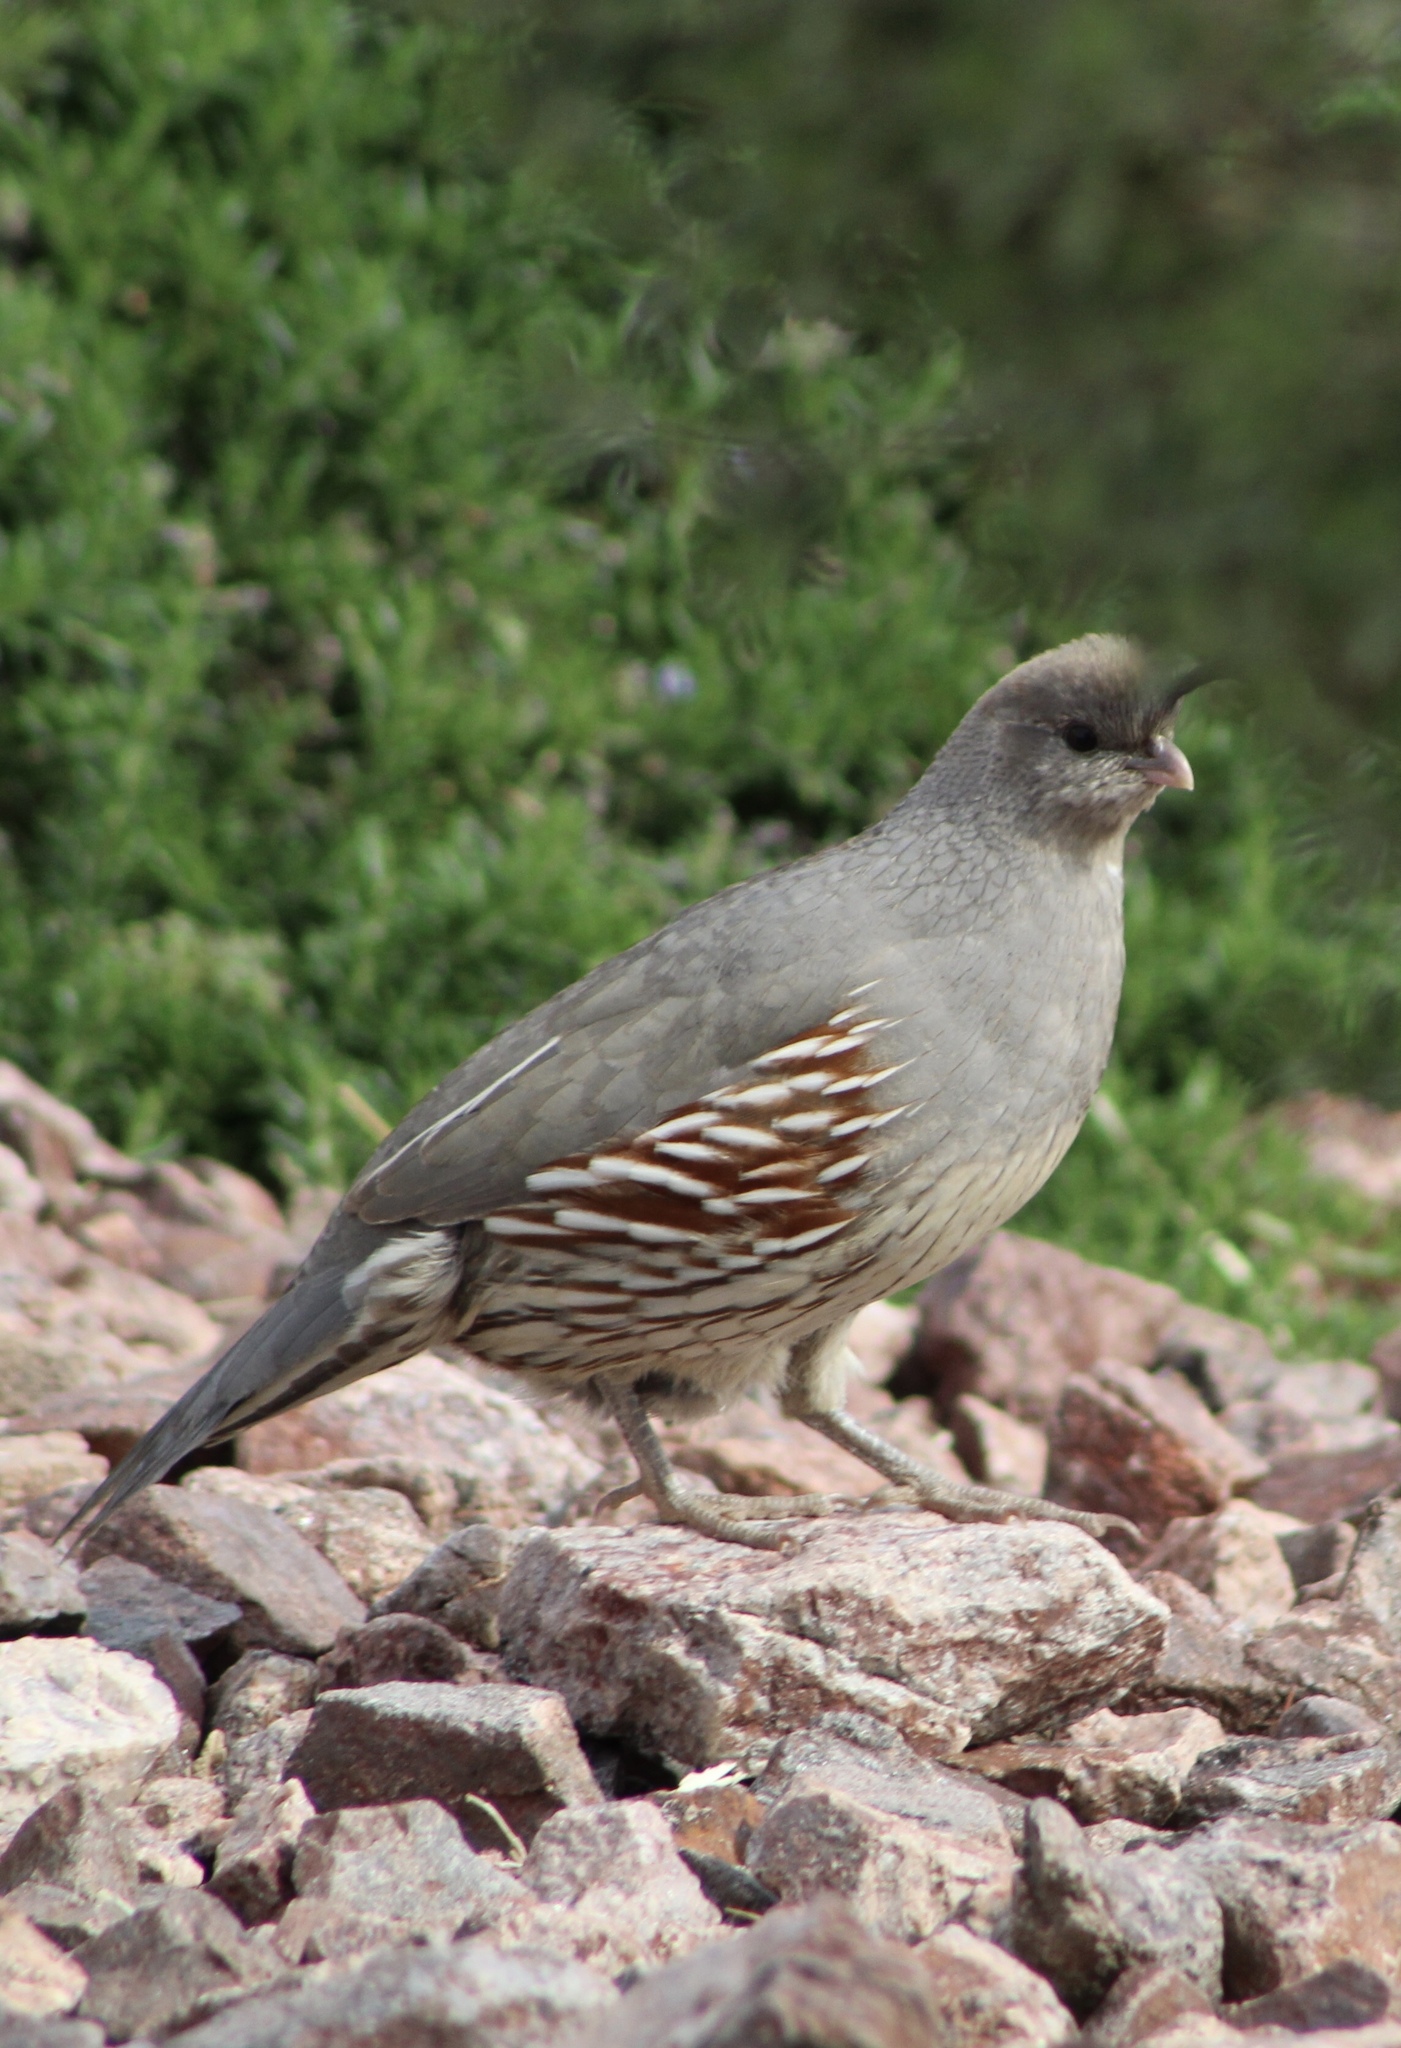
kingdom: Animalia
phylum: Chordata
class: Aves
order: Galliformes
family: Odontophoridae
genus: Callipepla
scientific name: Callipepla gambelii
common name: Gambel's quail
